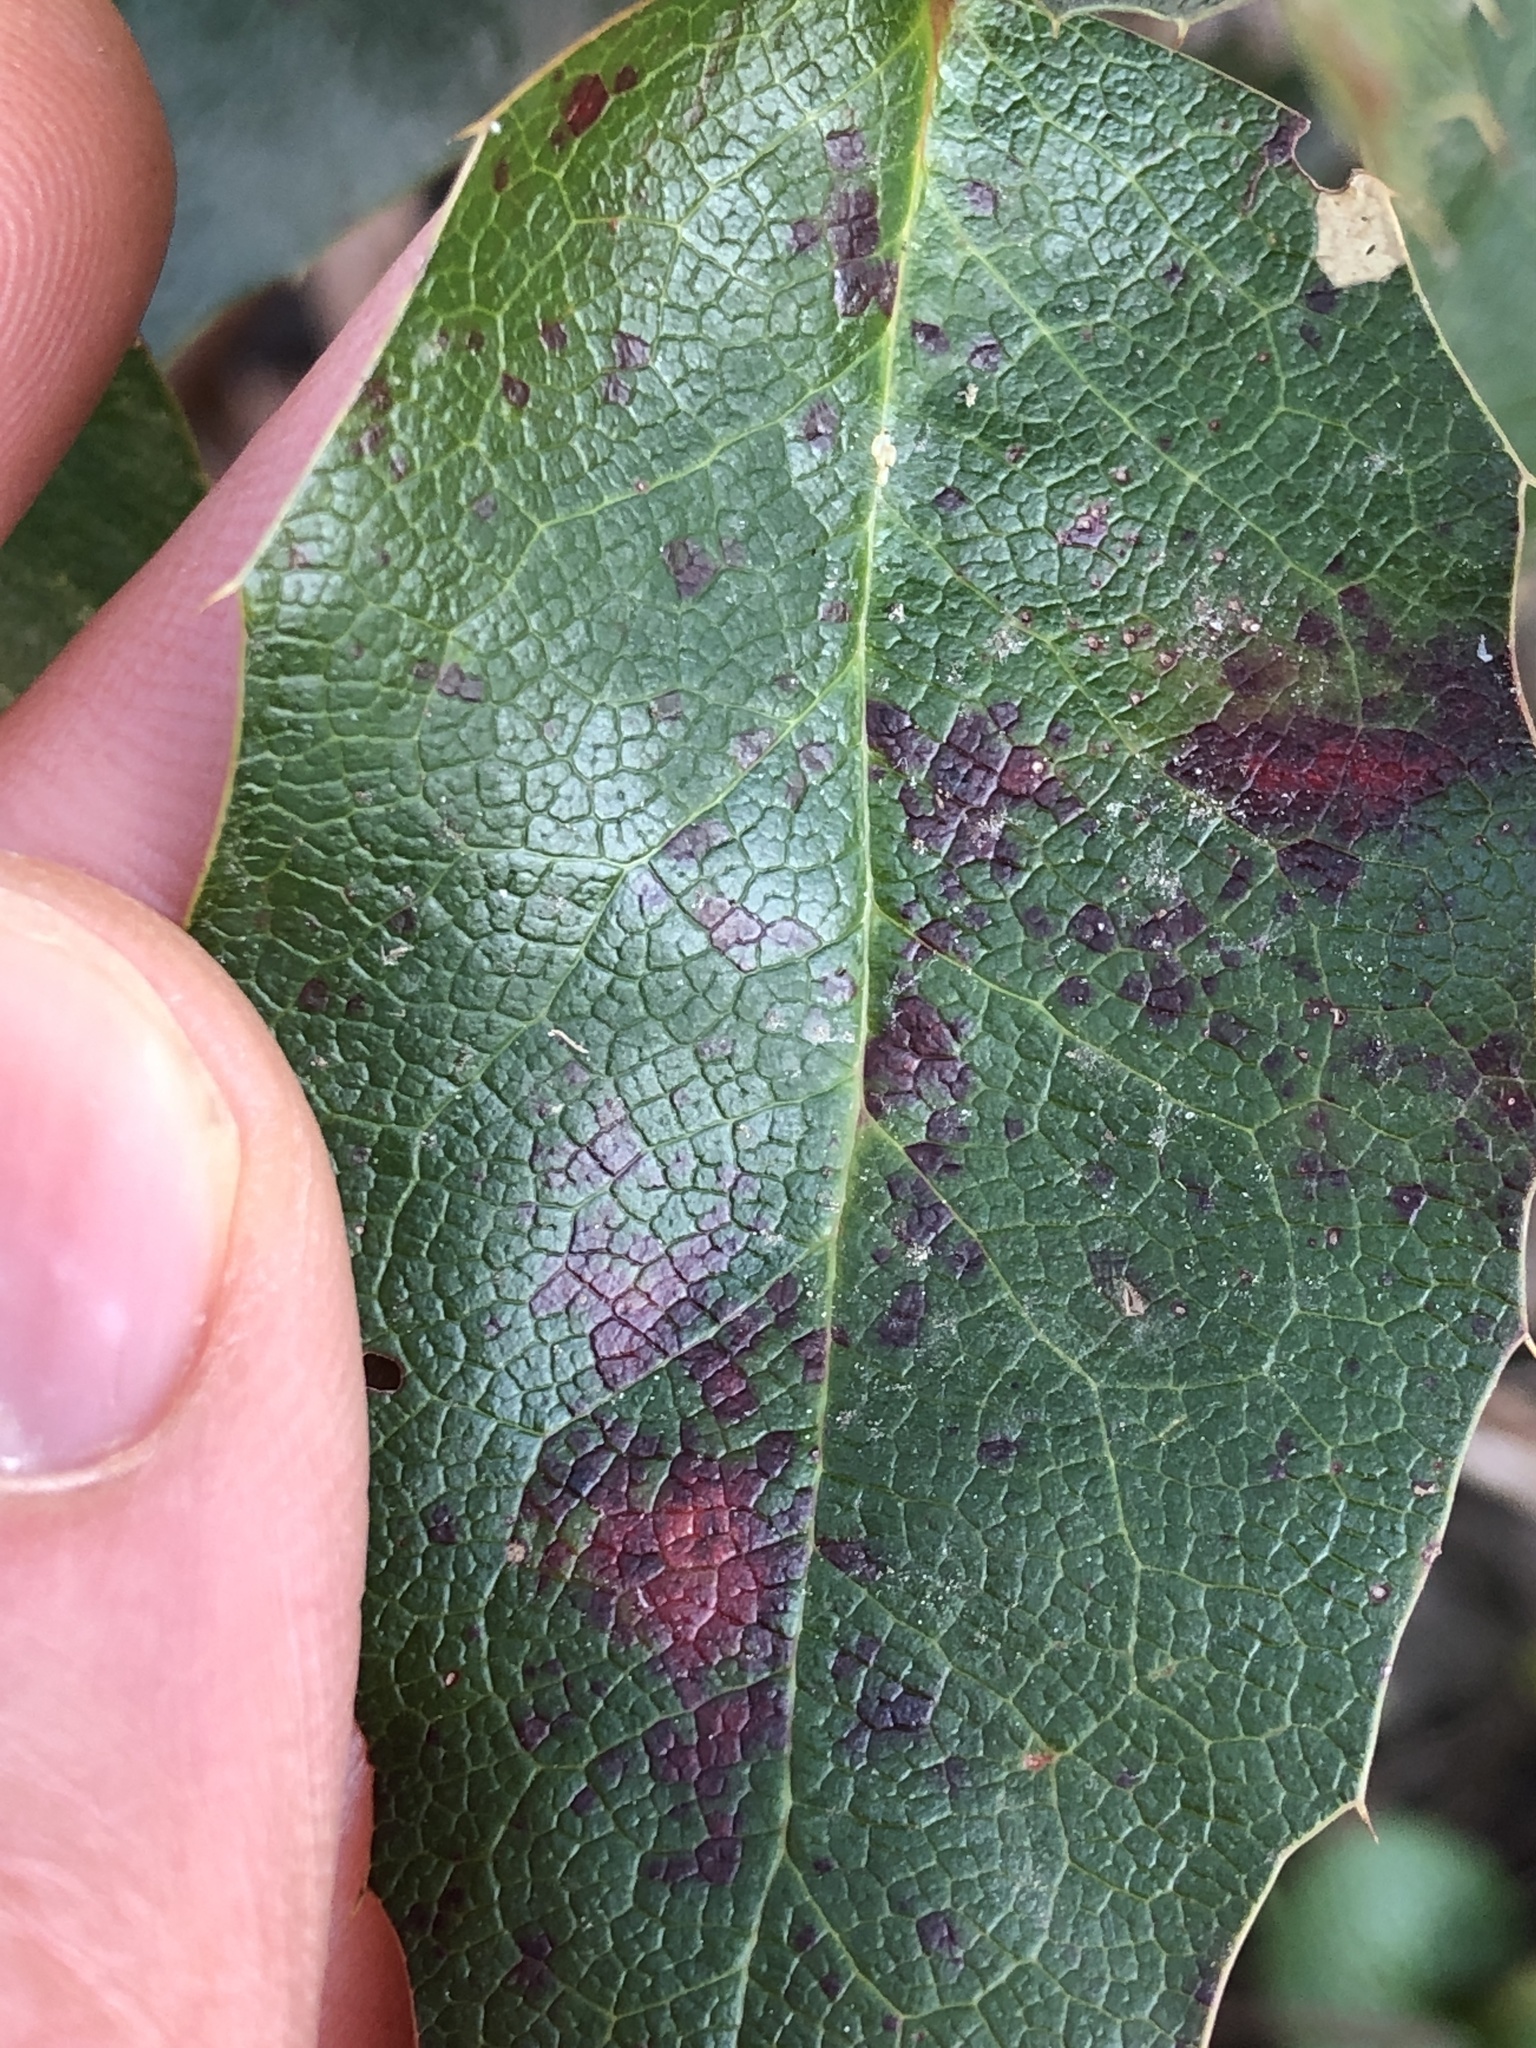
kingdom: Fungi
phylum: Basidiomycota
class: Pucciniomycetes
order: Pucciniales
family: Pucciniaceae
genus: Cumminsiella
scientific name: Cumminsiella mirabilissima
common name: Mahonia rust
